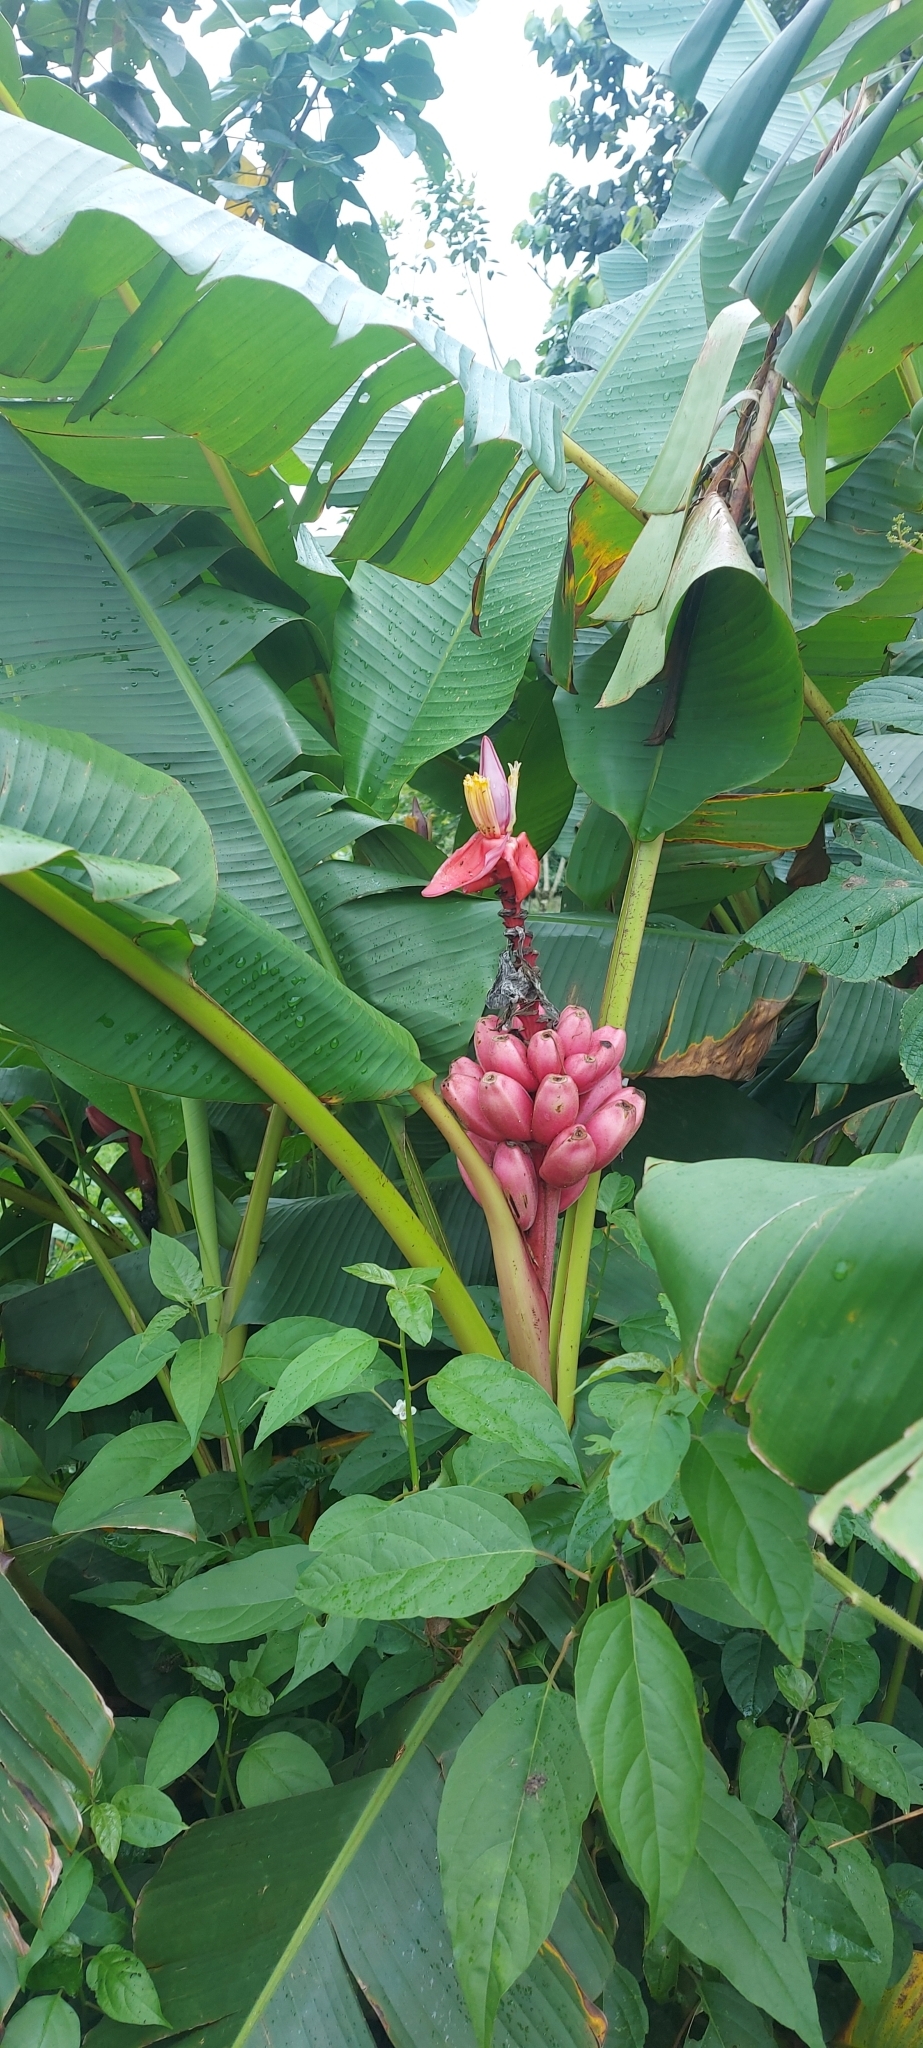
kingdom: Plantae
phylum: Tracheophyta
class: Liliopsida
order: Zingiberales
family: Musaceae
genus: Musa
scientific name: Musa velutina
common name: Pink velvet banana
